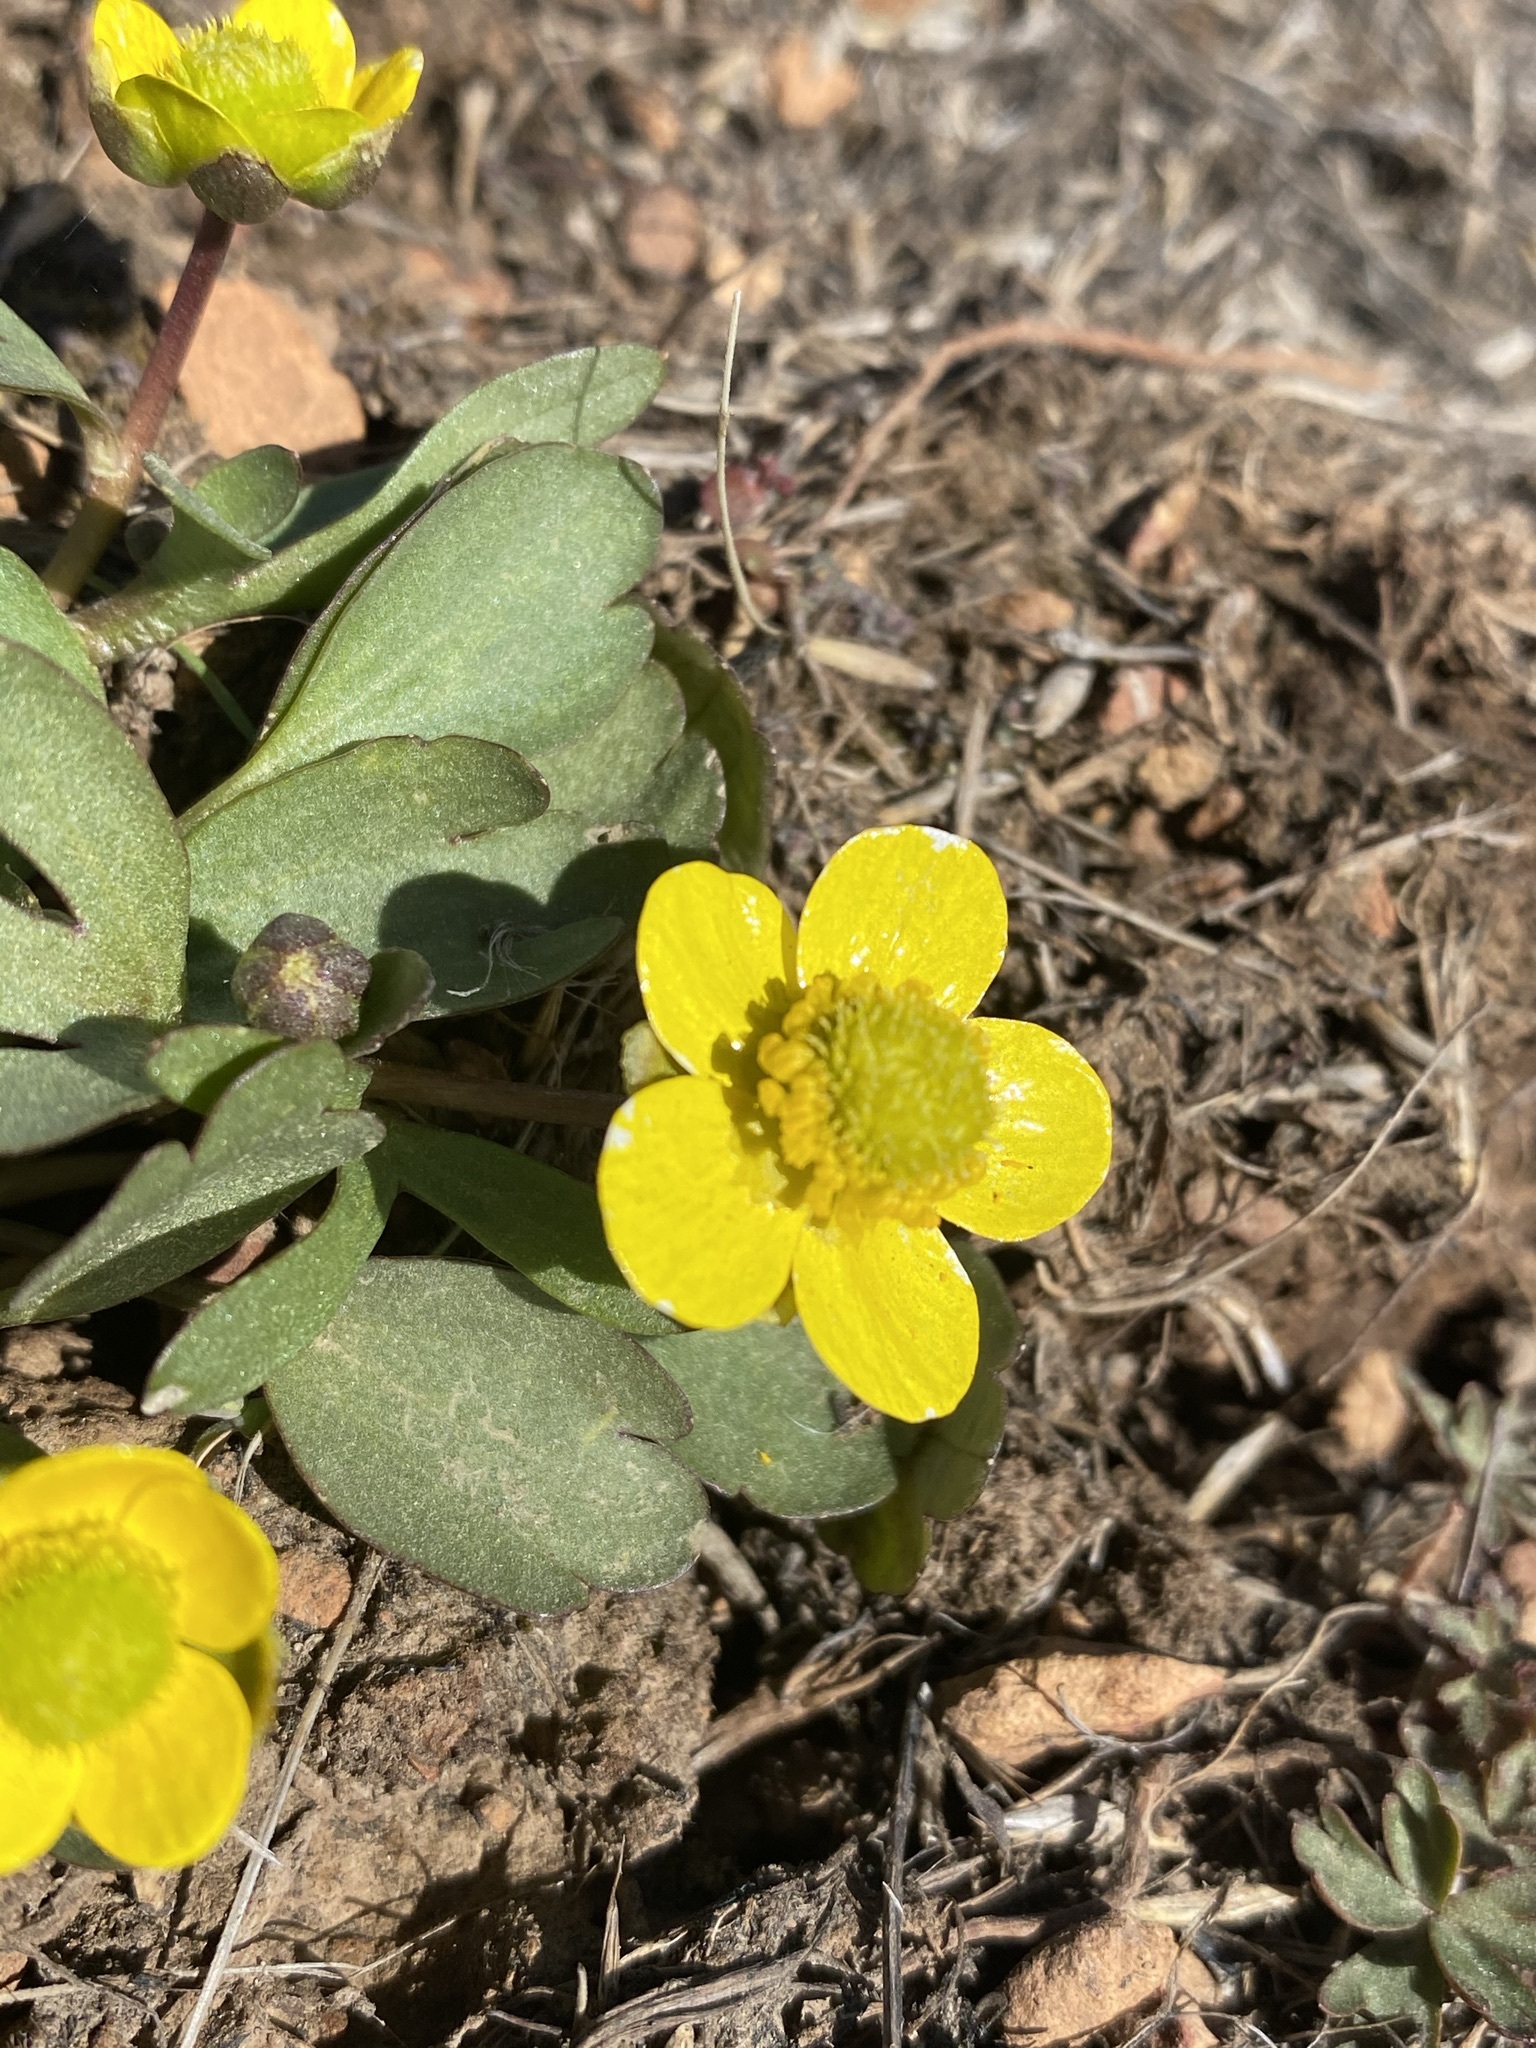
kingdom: Plantae
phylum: Tracheophyta
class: Magnoliopsida
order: Ranunculales
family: Ranunculaceae
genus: Ranunculus
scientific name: Ranunculus glaberrimus
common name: Sagebrush buttercup
